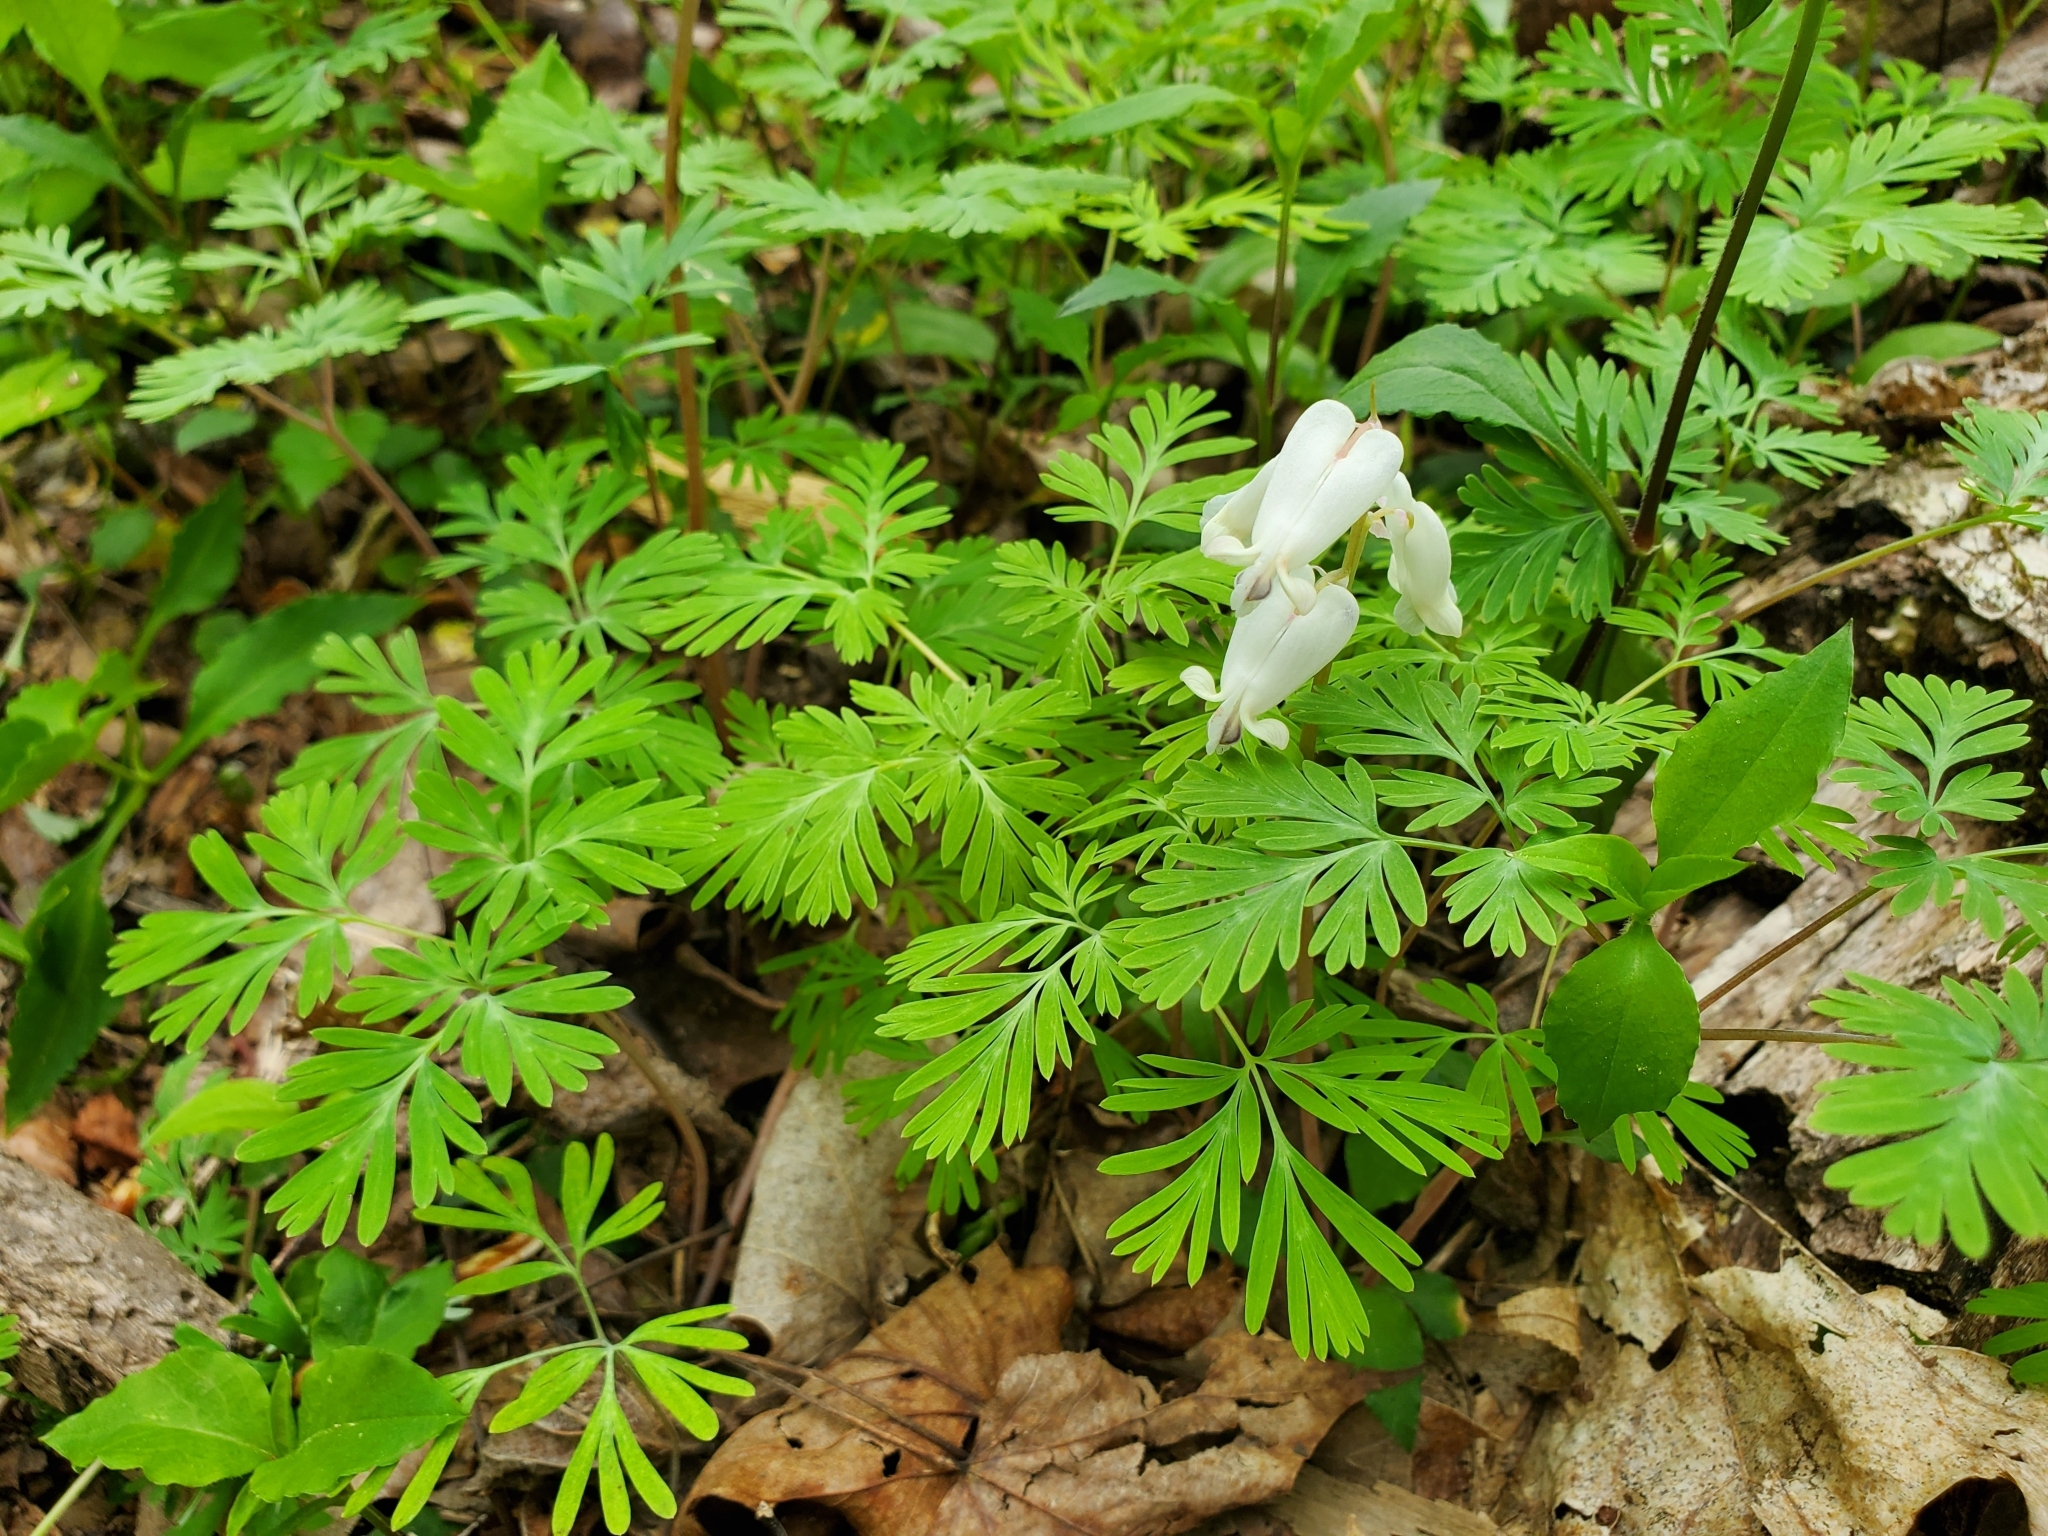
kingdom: Plantae
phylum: Tracheophyta
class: Magnoliopsida
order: Ranunculales
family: Papaveraceae
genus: Dicentra
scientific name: Dicentra canadensis
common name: Squirrel-corn
